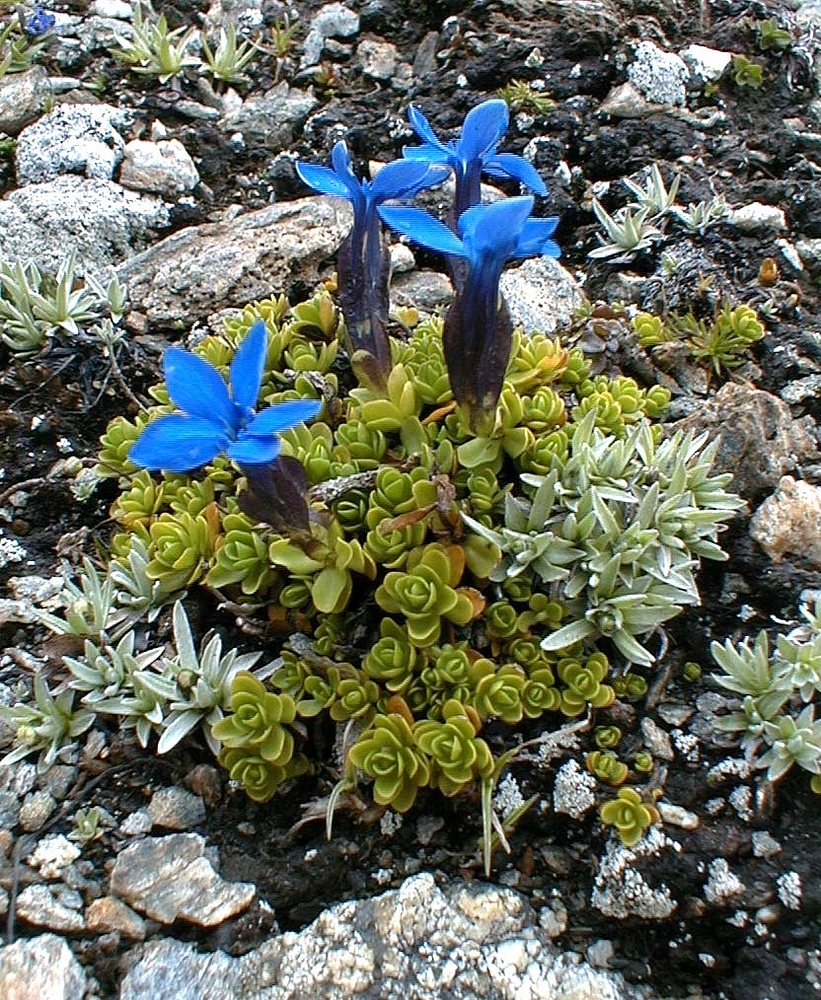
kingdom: Plantae
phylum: Tracheophyta
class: Magnoliopsida
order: Gentianales
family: Gentianaceae
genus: Gentiana
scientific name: Gentiana bavarica
